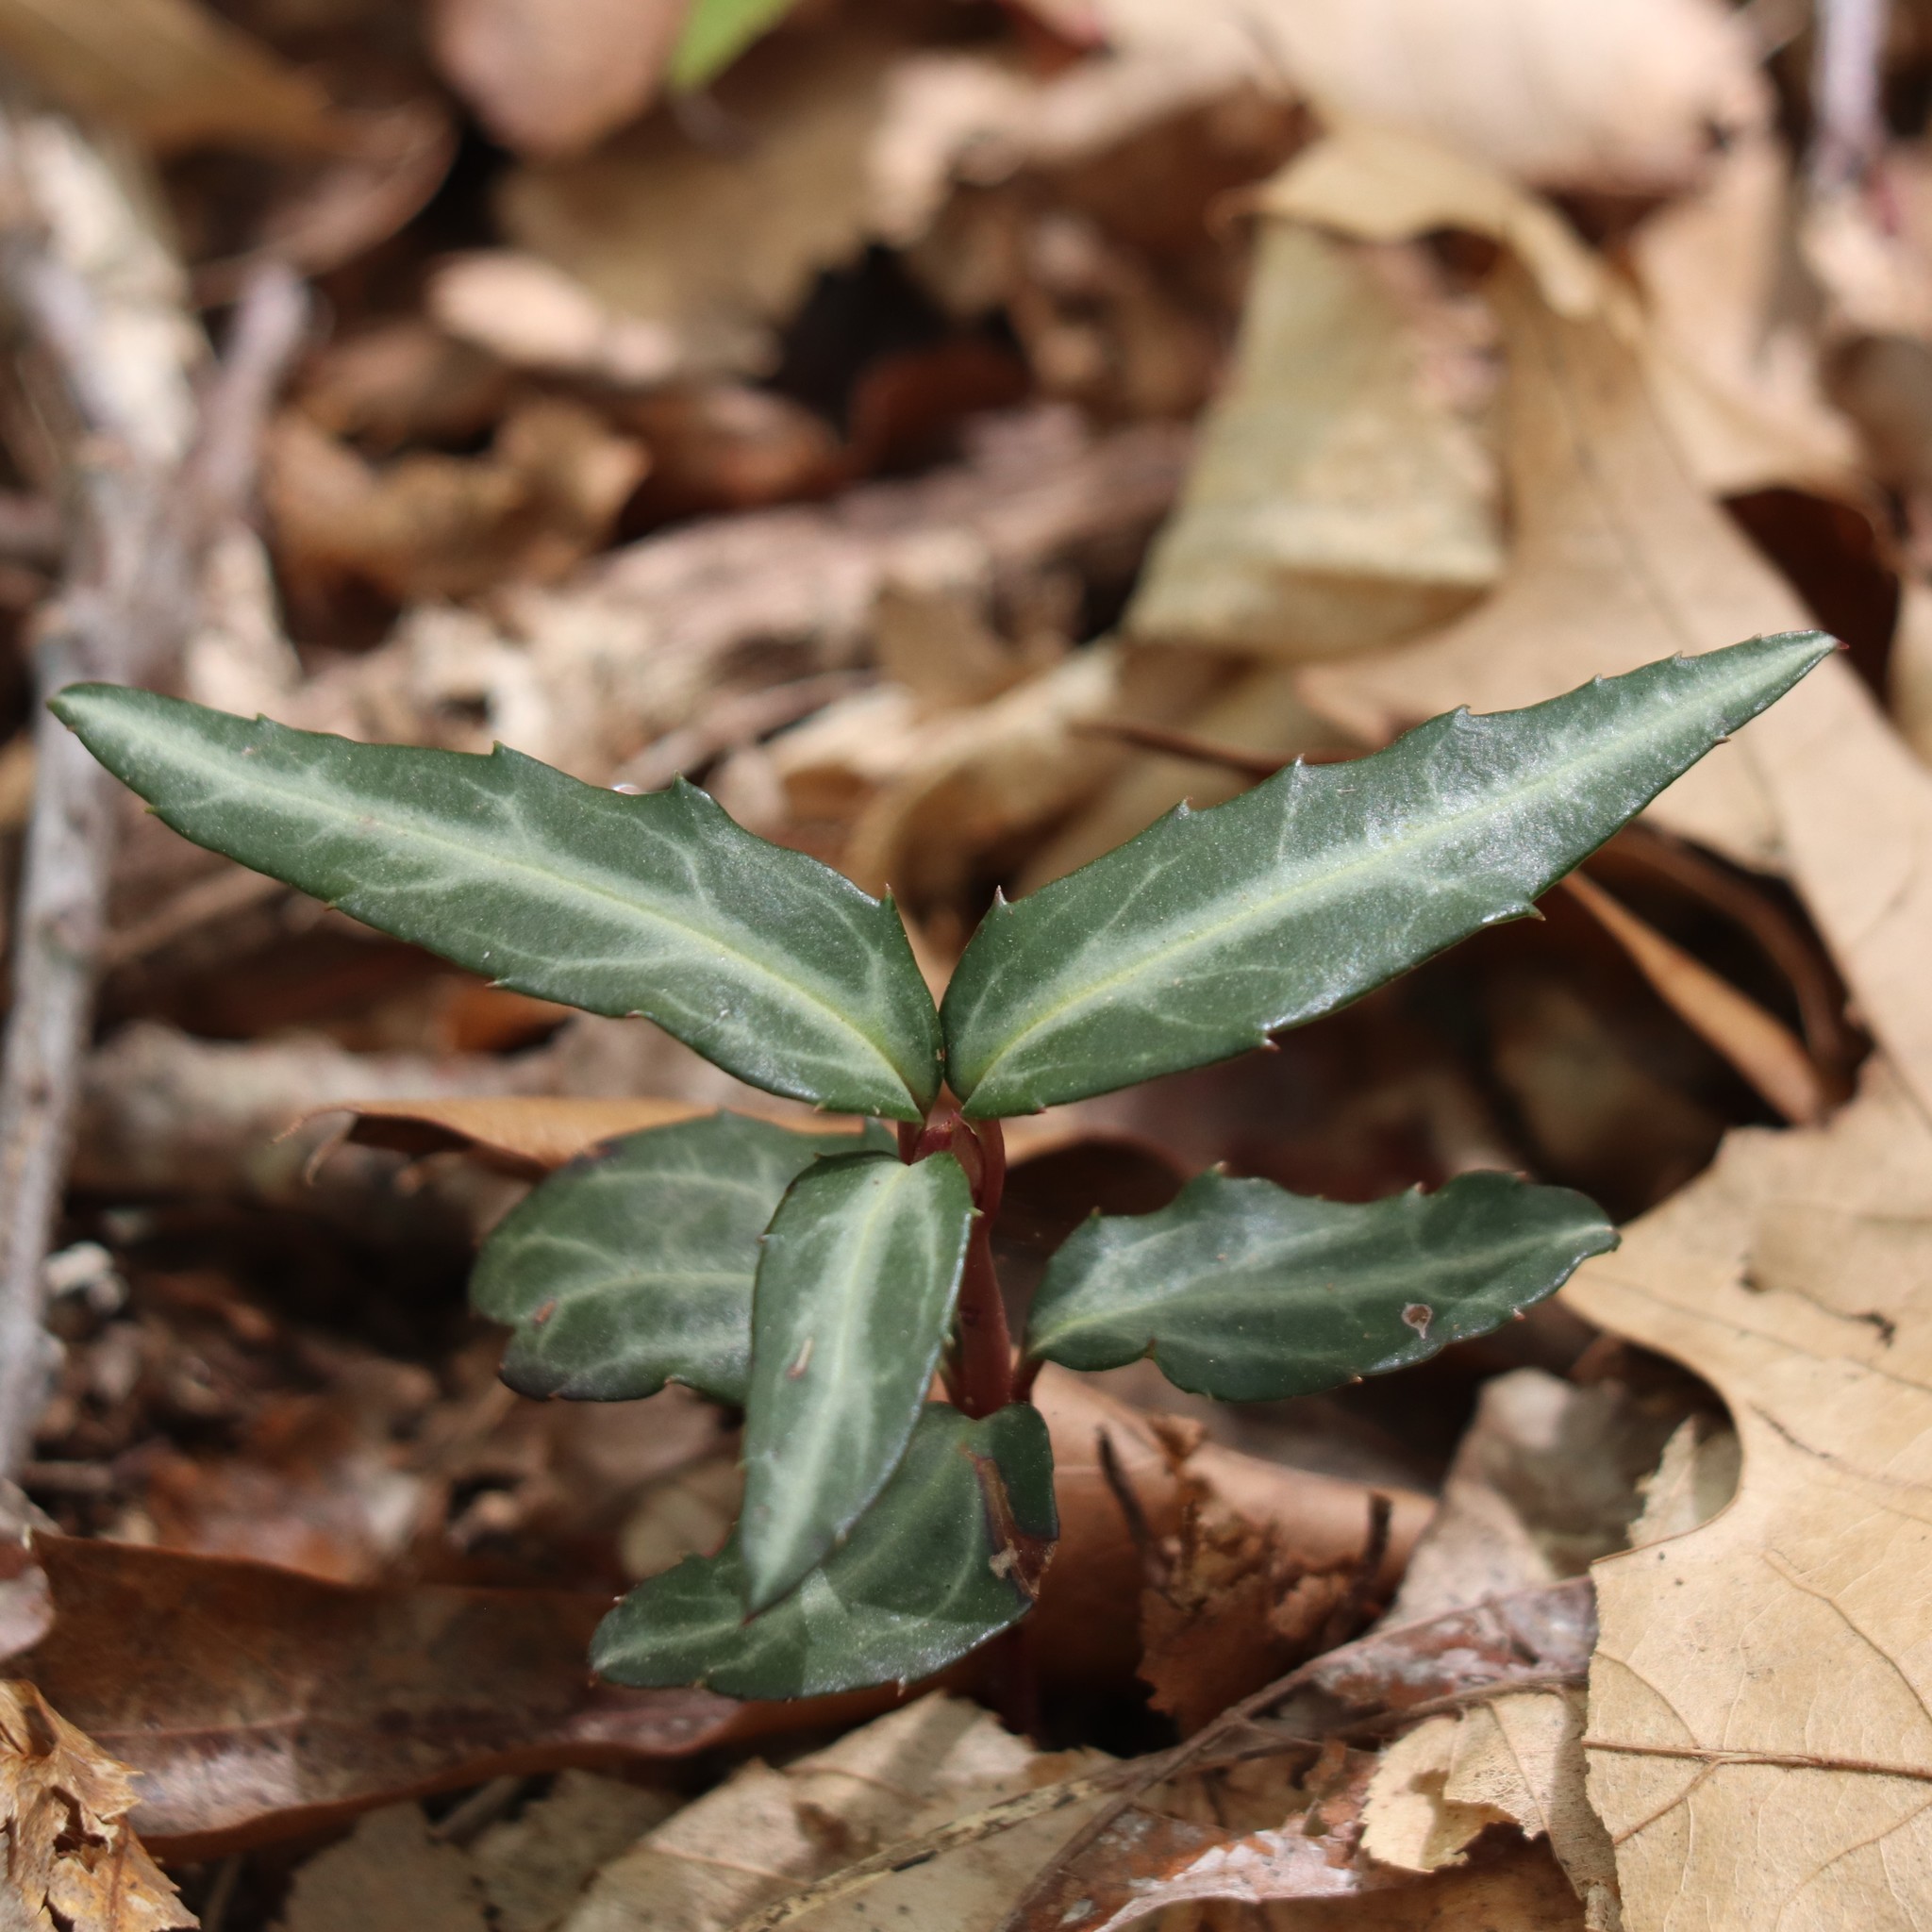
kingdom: Plantae
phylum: Tracheophyta
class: Magnoliopsida
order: Ericales
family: Ericaceae
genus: Chimaphila
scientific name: Chimaphila maculata
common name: Spotted pipsissewa
